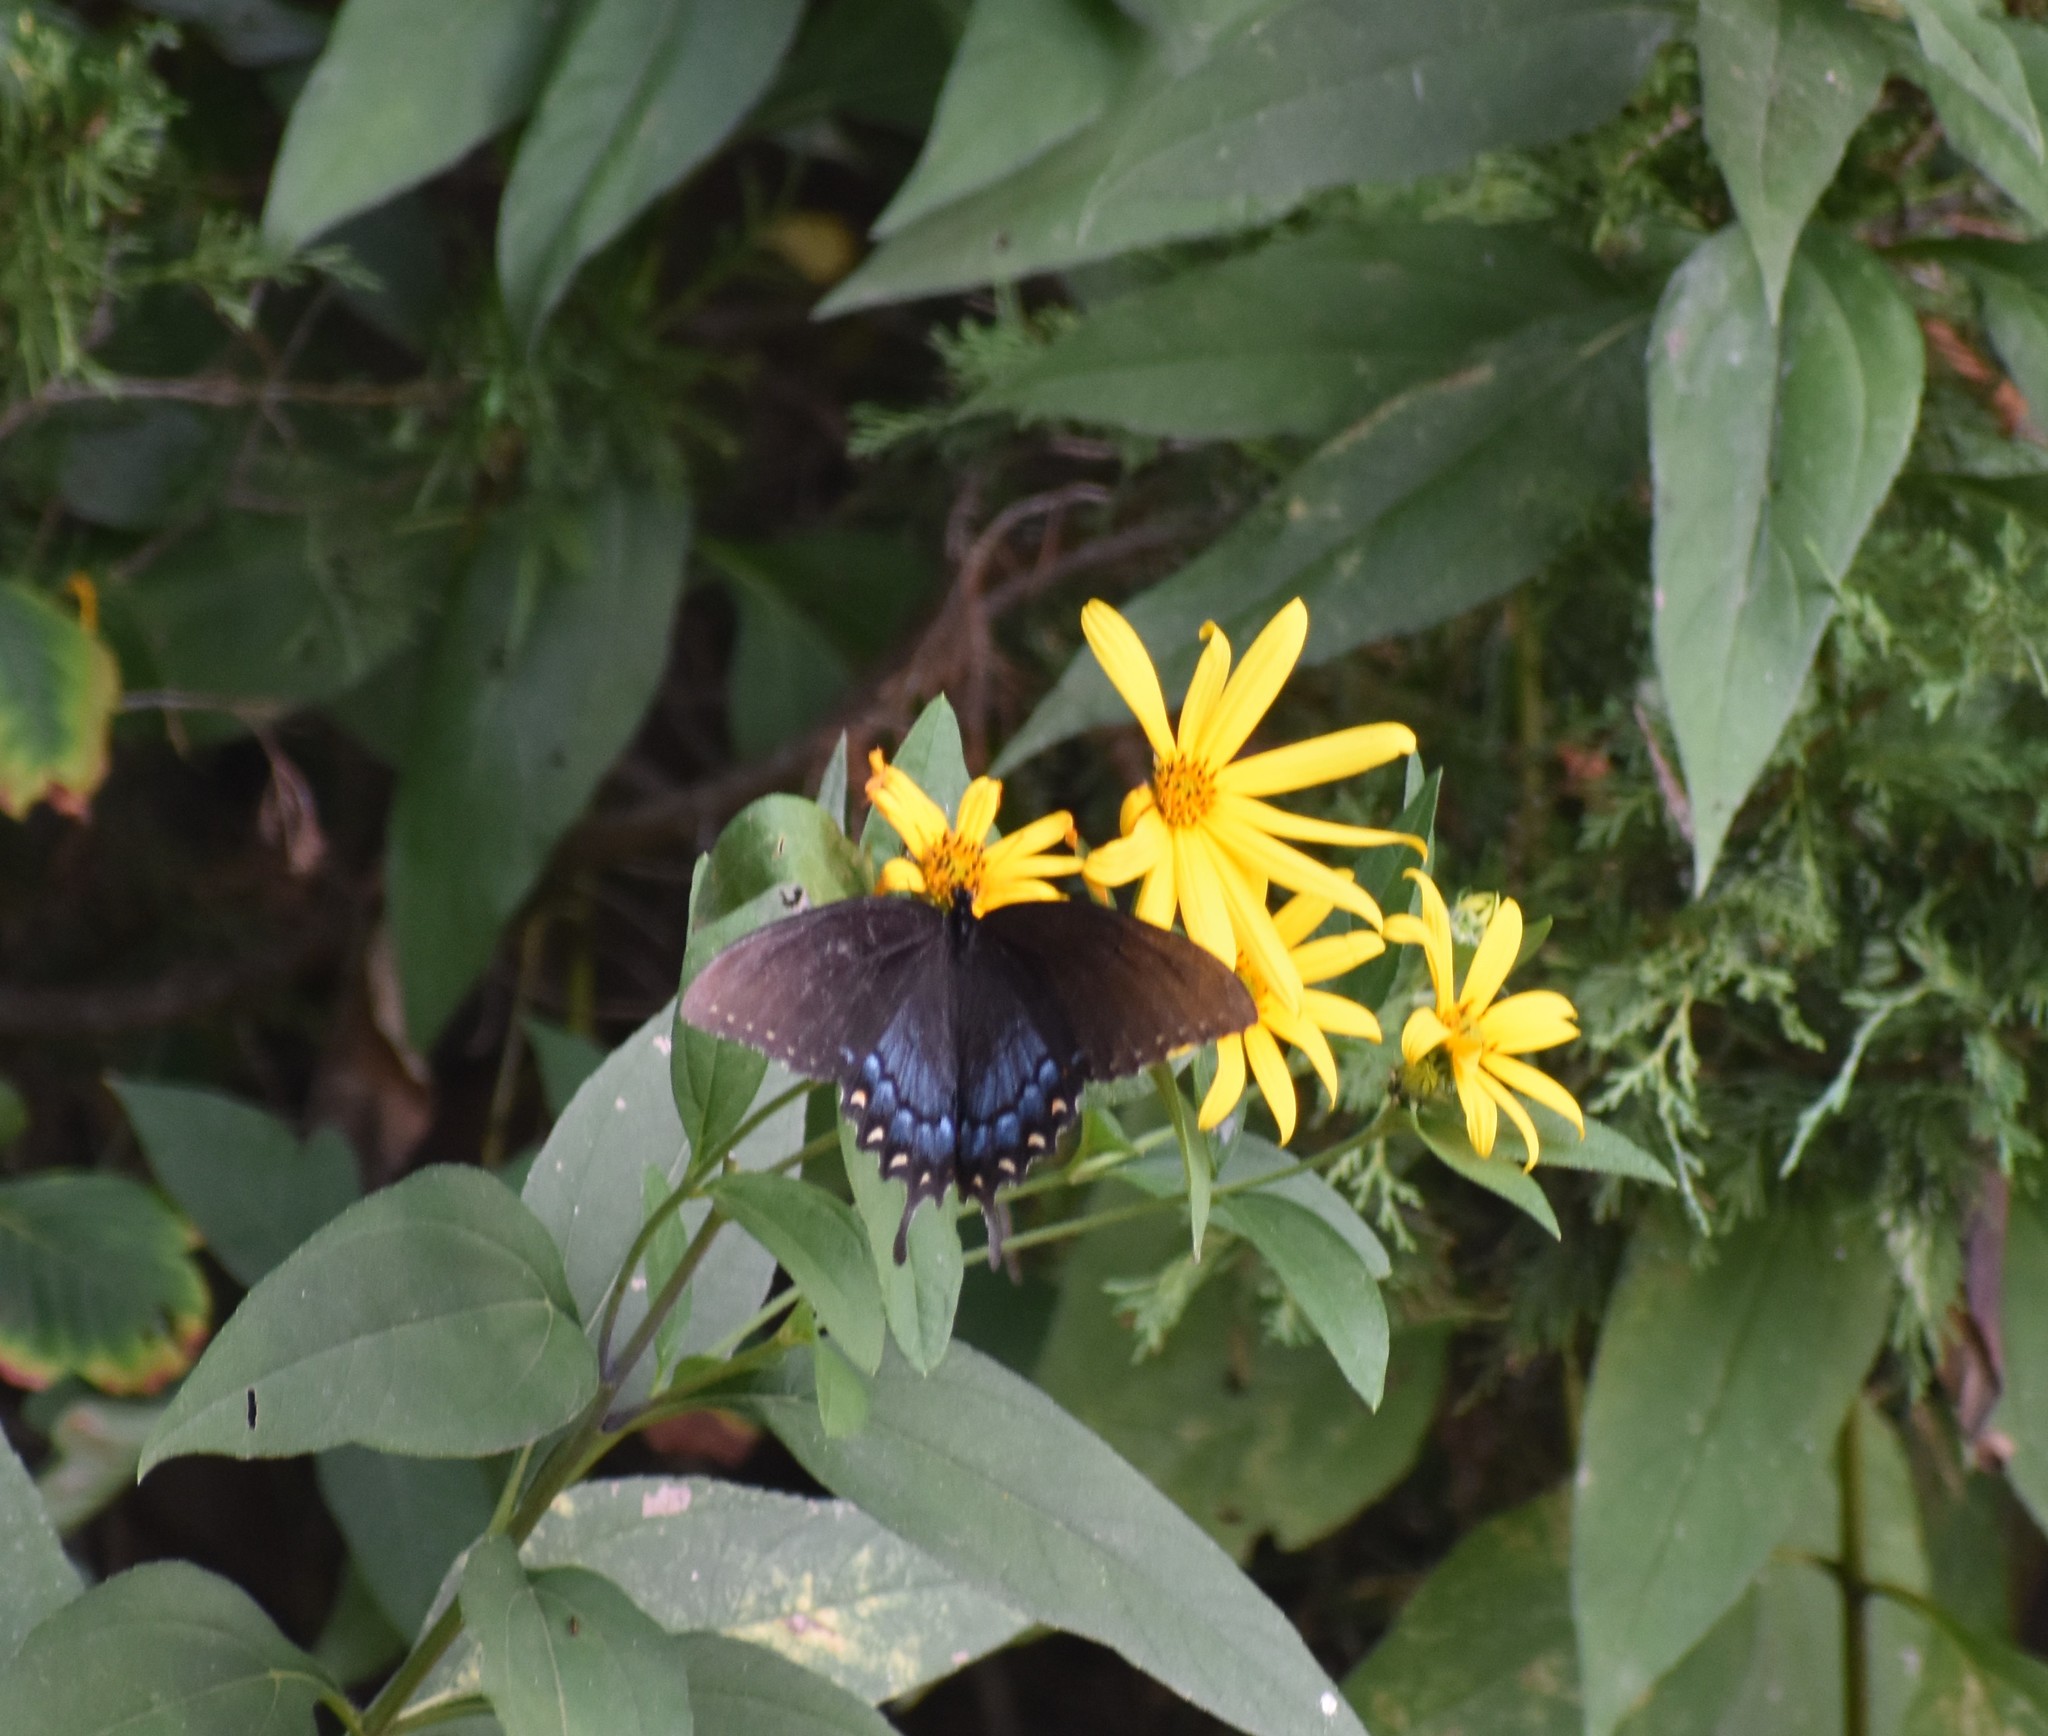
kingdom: Animalia
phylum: Arthropoda
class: Insecta
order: Lepidoptera
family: Papilionidae
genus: Papilio
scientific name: Papilio glaucus
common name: Tiger swallowtail
